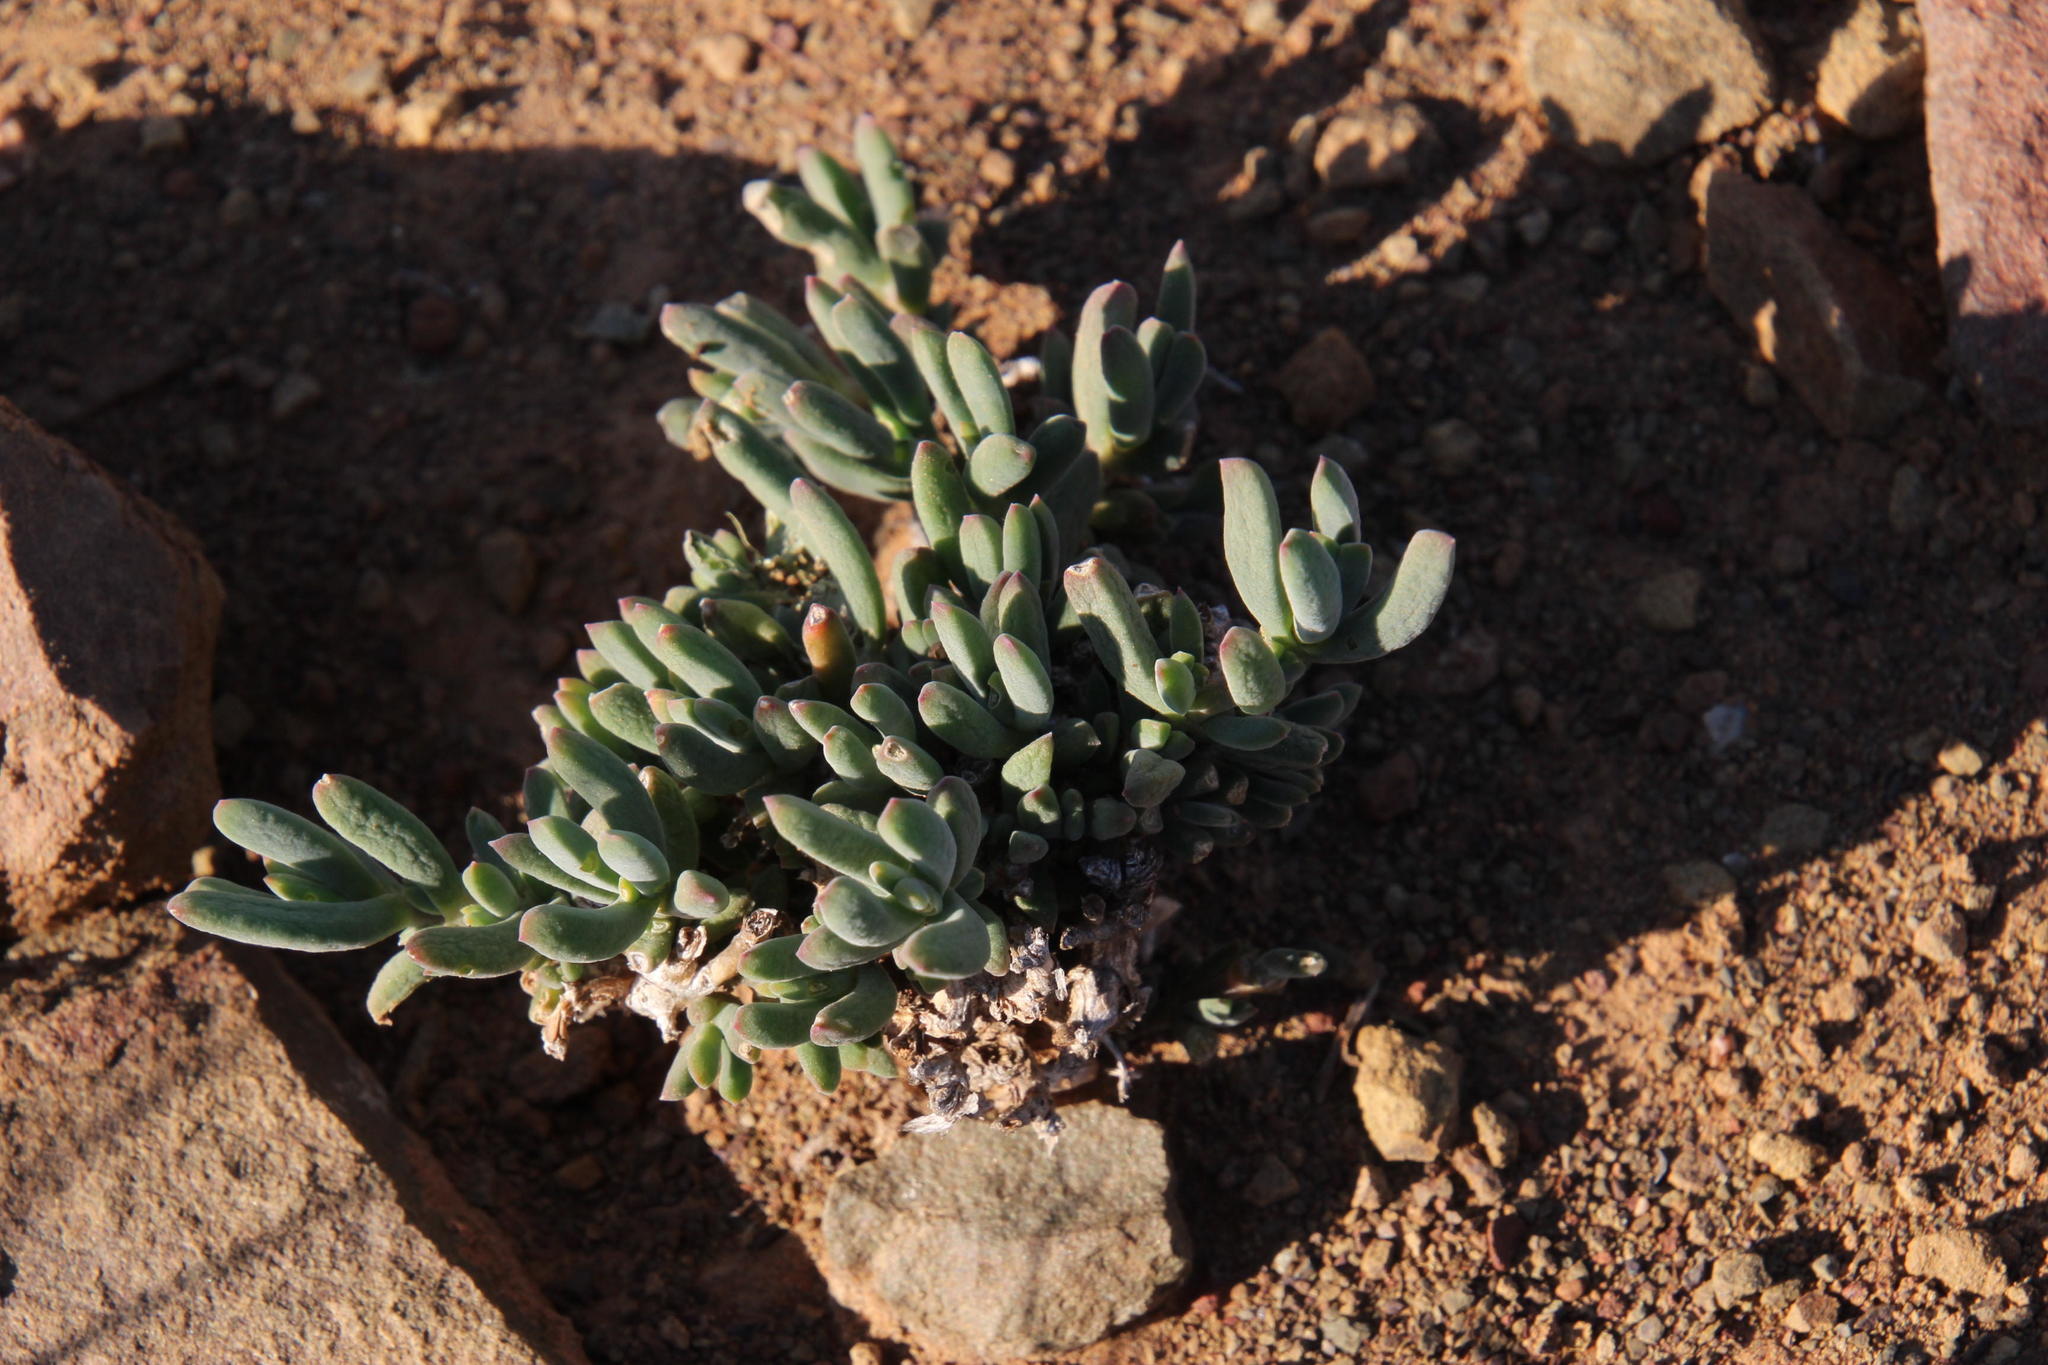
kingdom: Plantae
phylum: Tracheophyta
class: Magnoliopsida
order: Caryophyllales
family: Aizoaceae
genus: Delosperma
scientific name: Delosperma maxwellii
